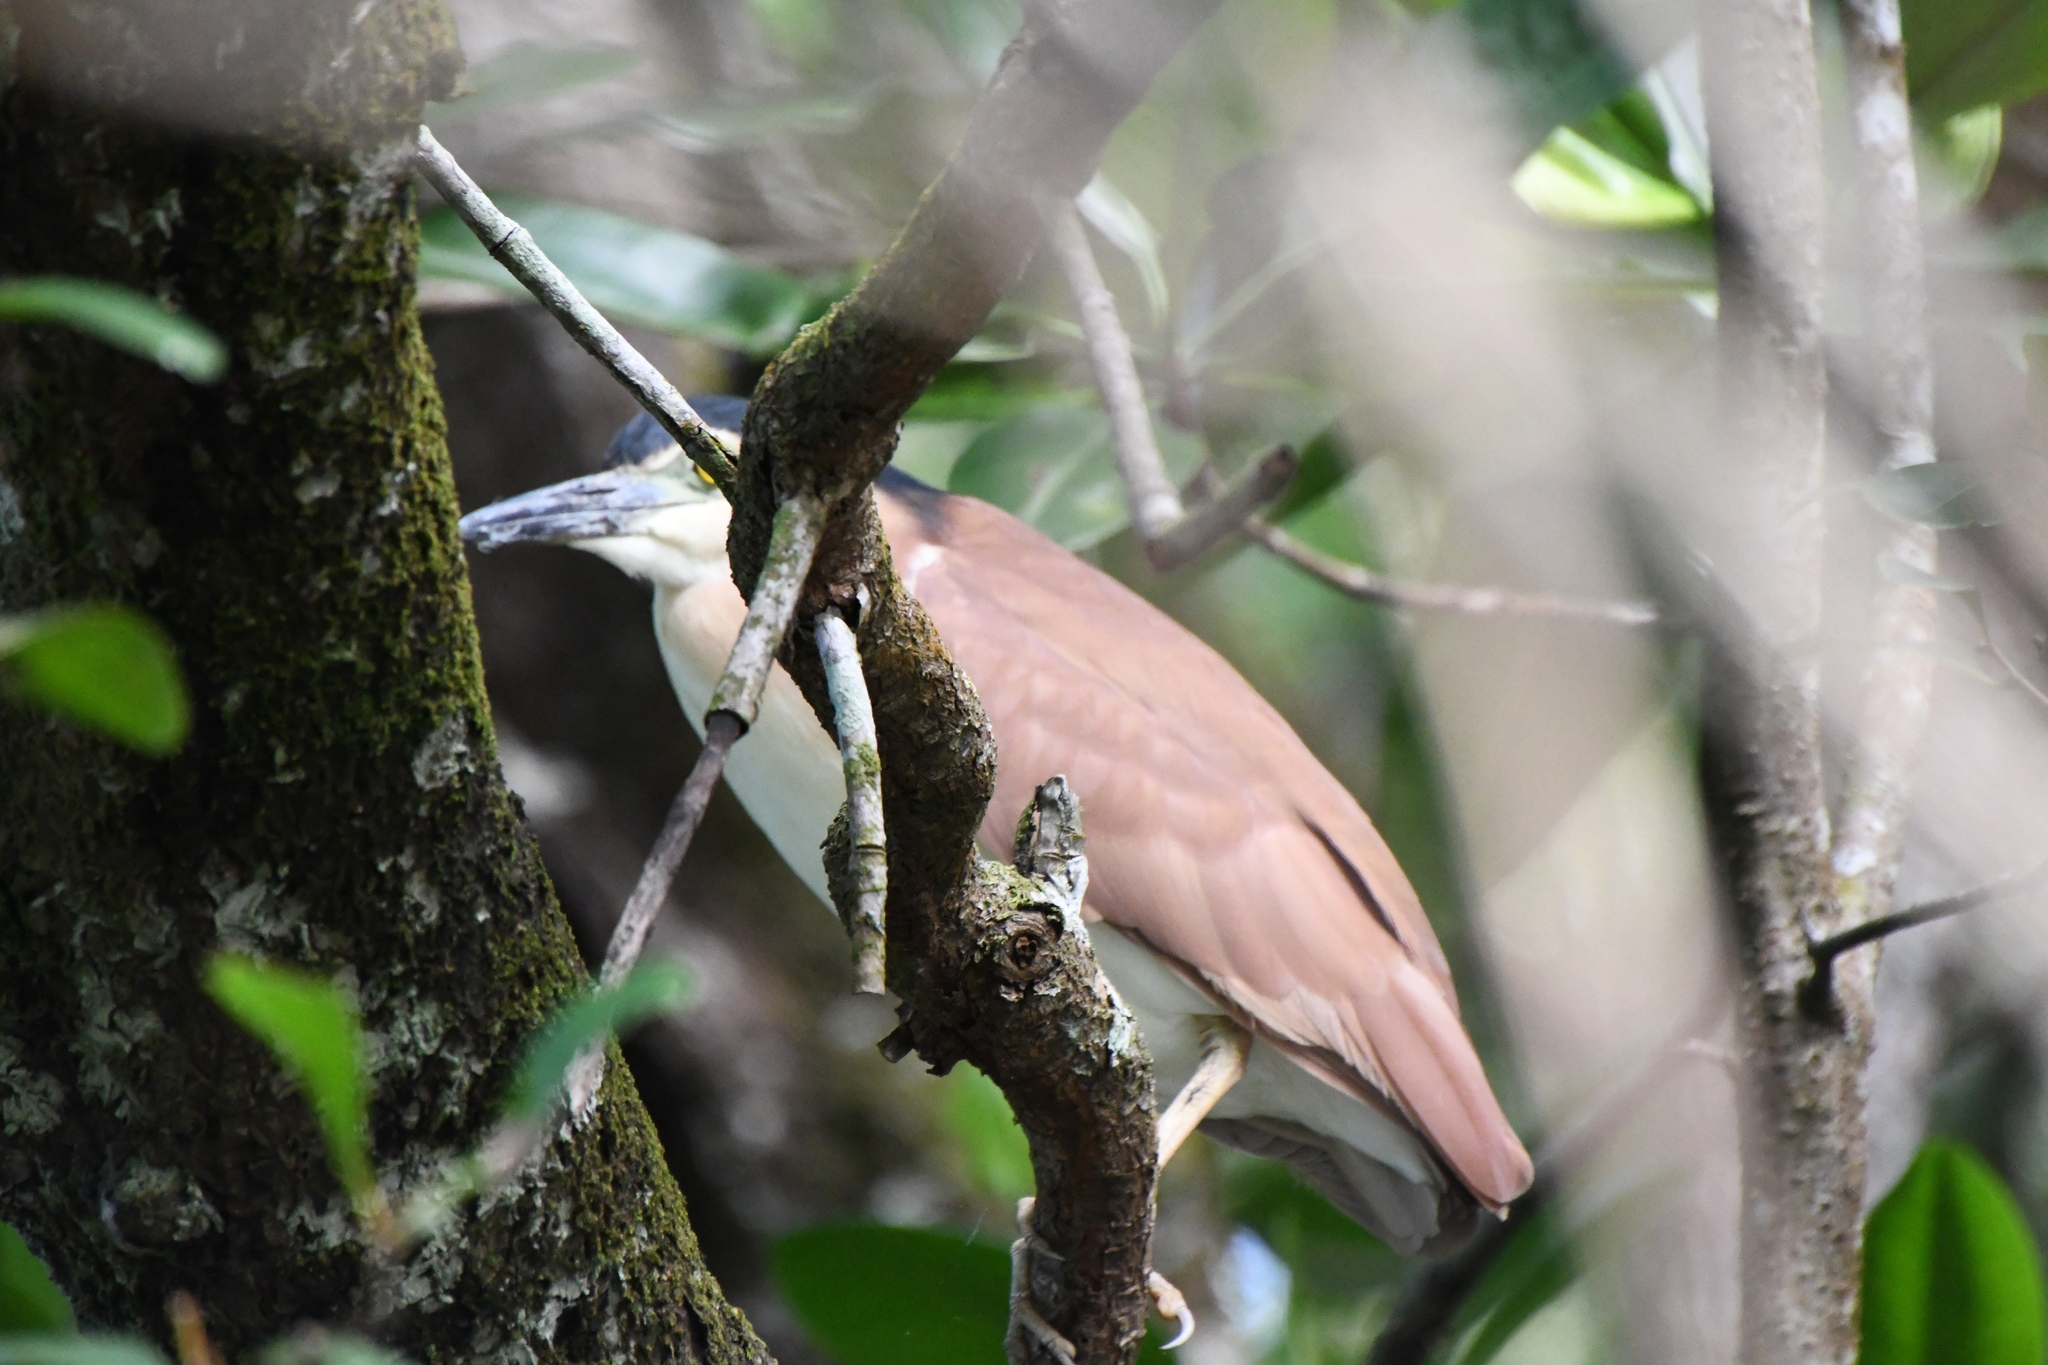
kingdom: Animalia
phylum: Chordata
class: Aves
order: Pelecaniformes
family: Ardeidae
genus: Nycticorax
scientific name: Nycticorax caledonicus
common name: Rufous night-heron
